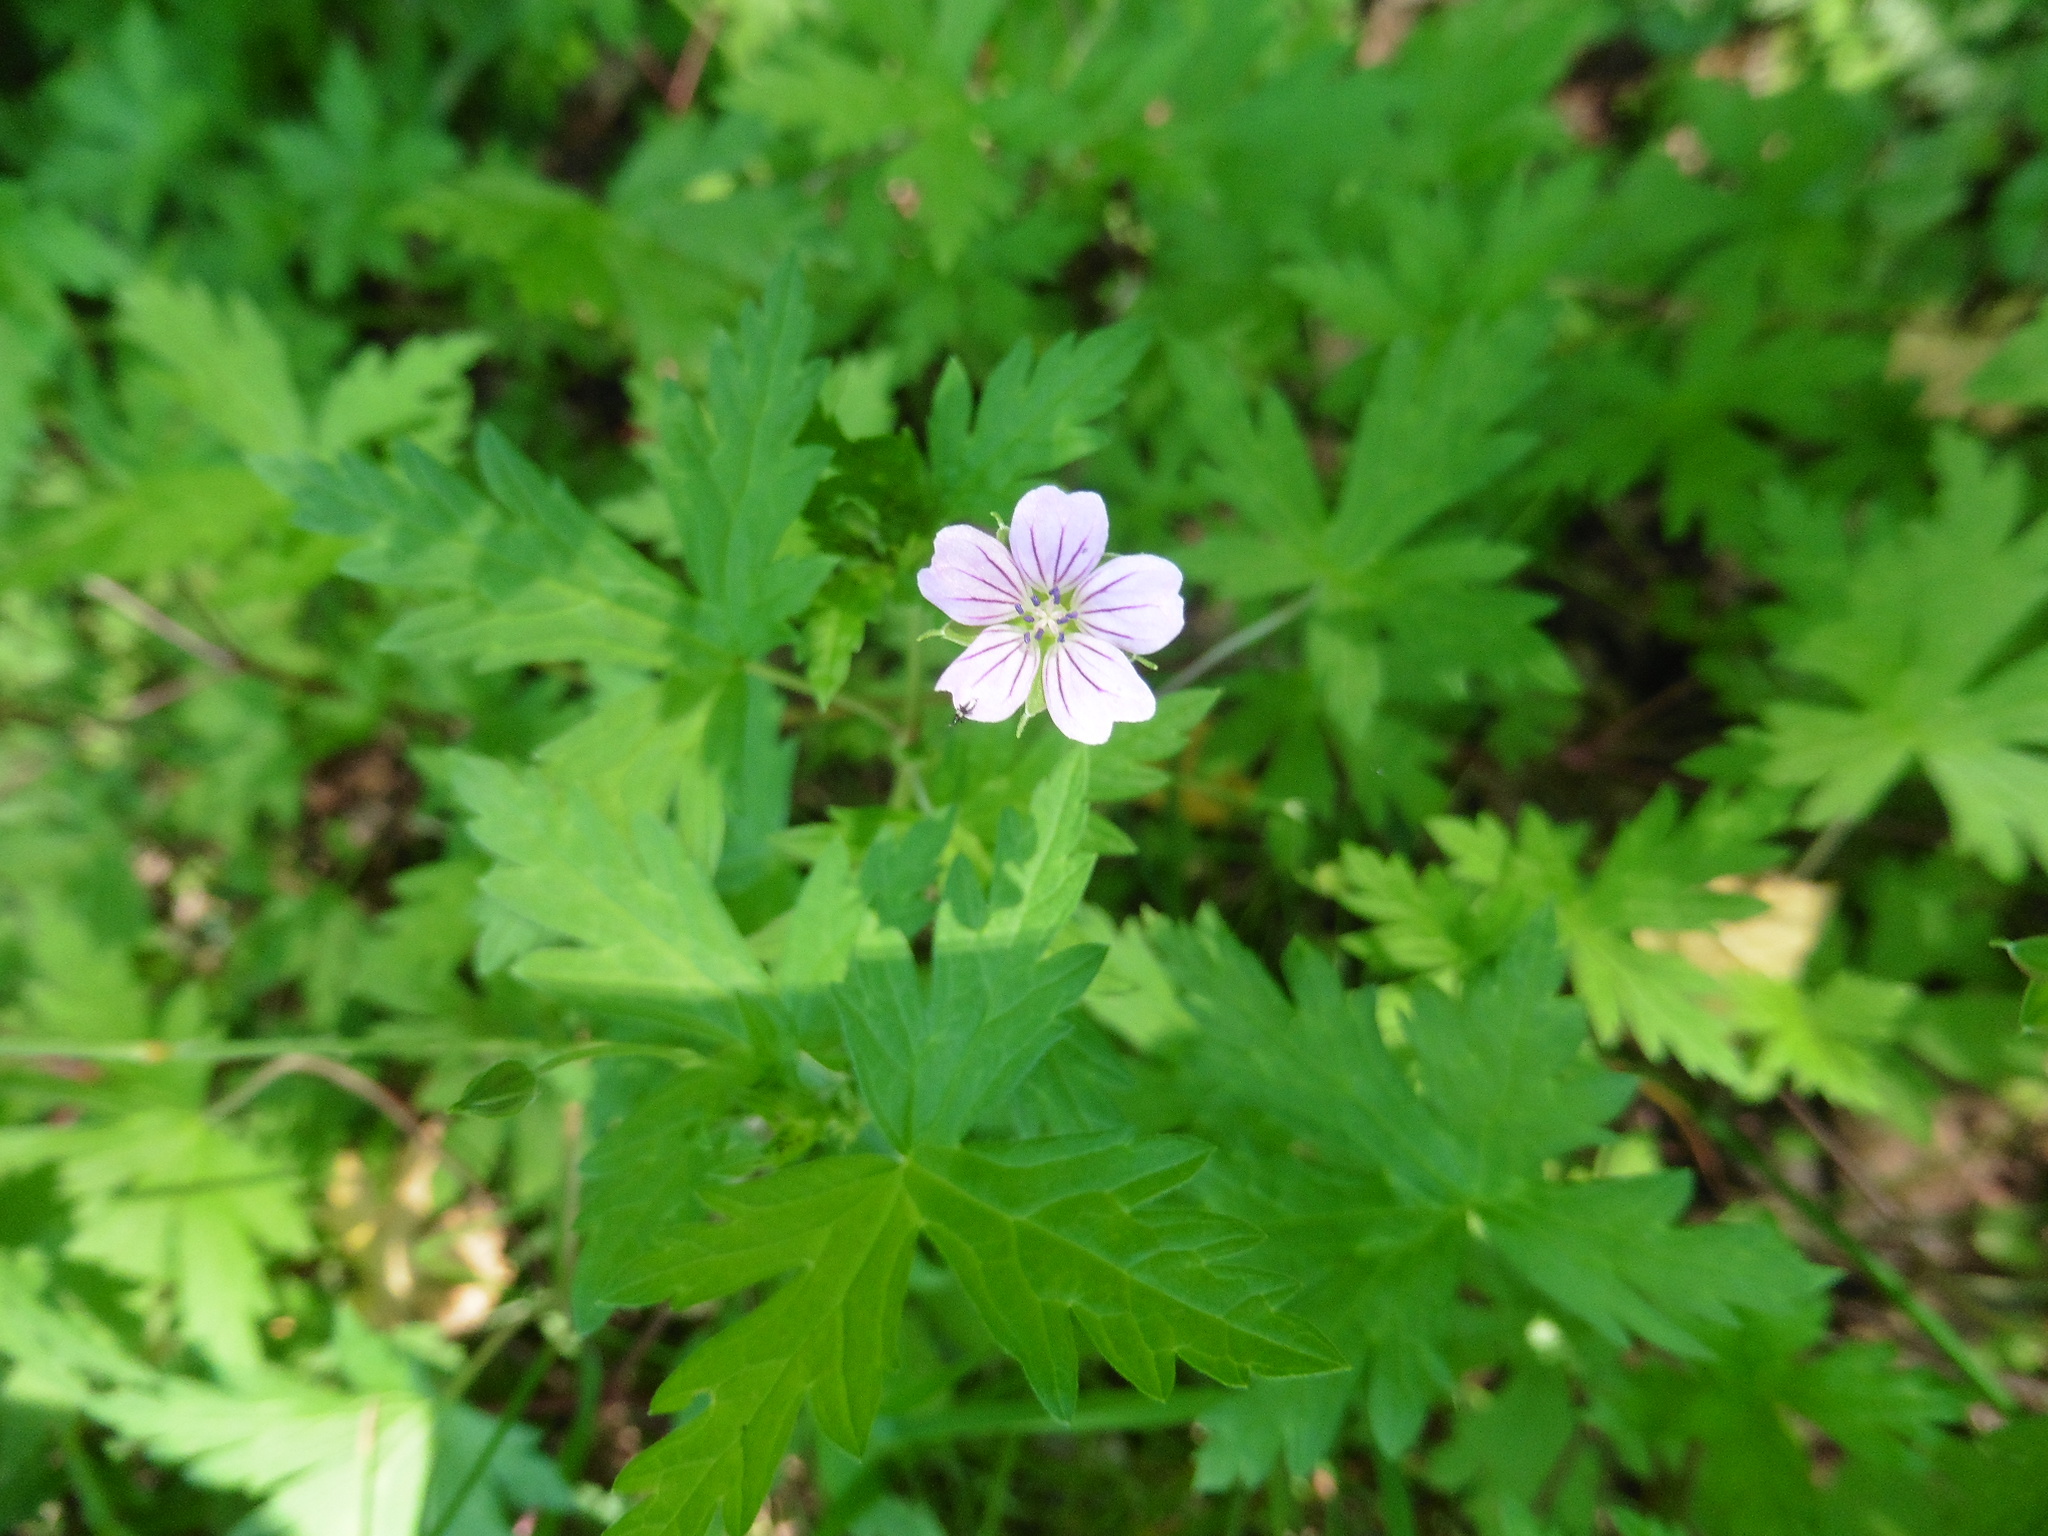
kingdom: Plantae
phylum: Tracheophyta
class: Magnoliopsida
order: Geraniales
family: Geraniaceae
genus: Geranium
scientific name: Geranium sibiricum
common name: Siberian crane's-bill
